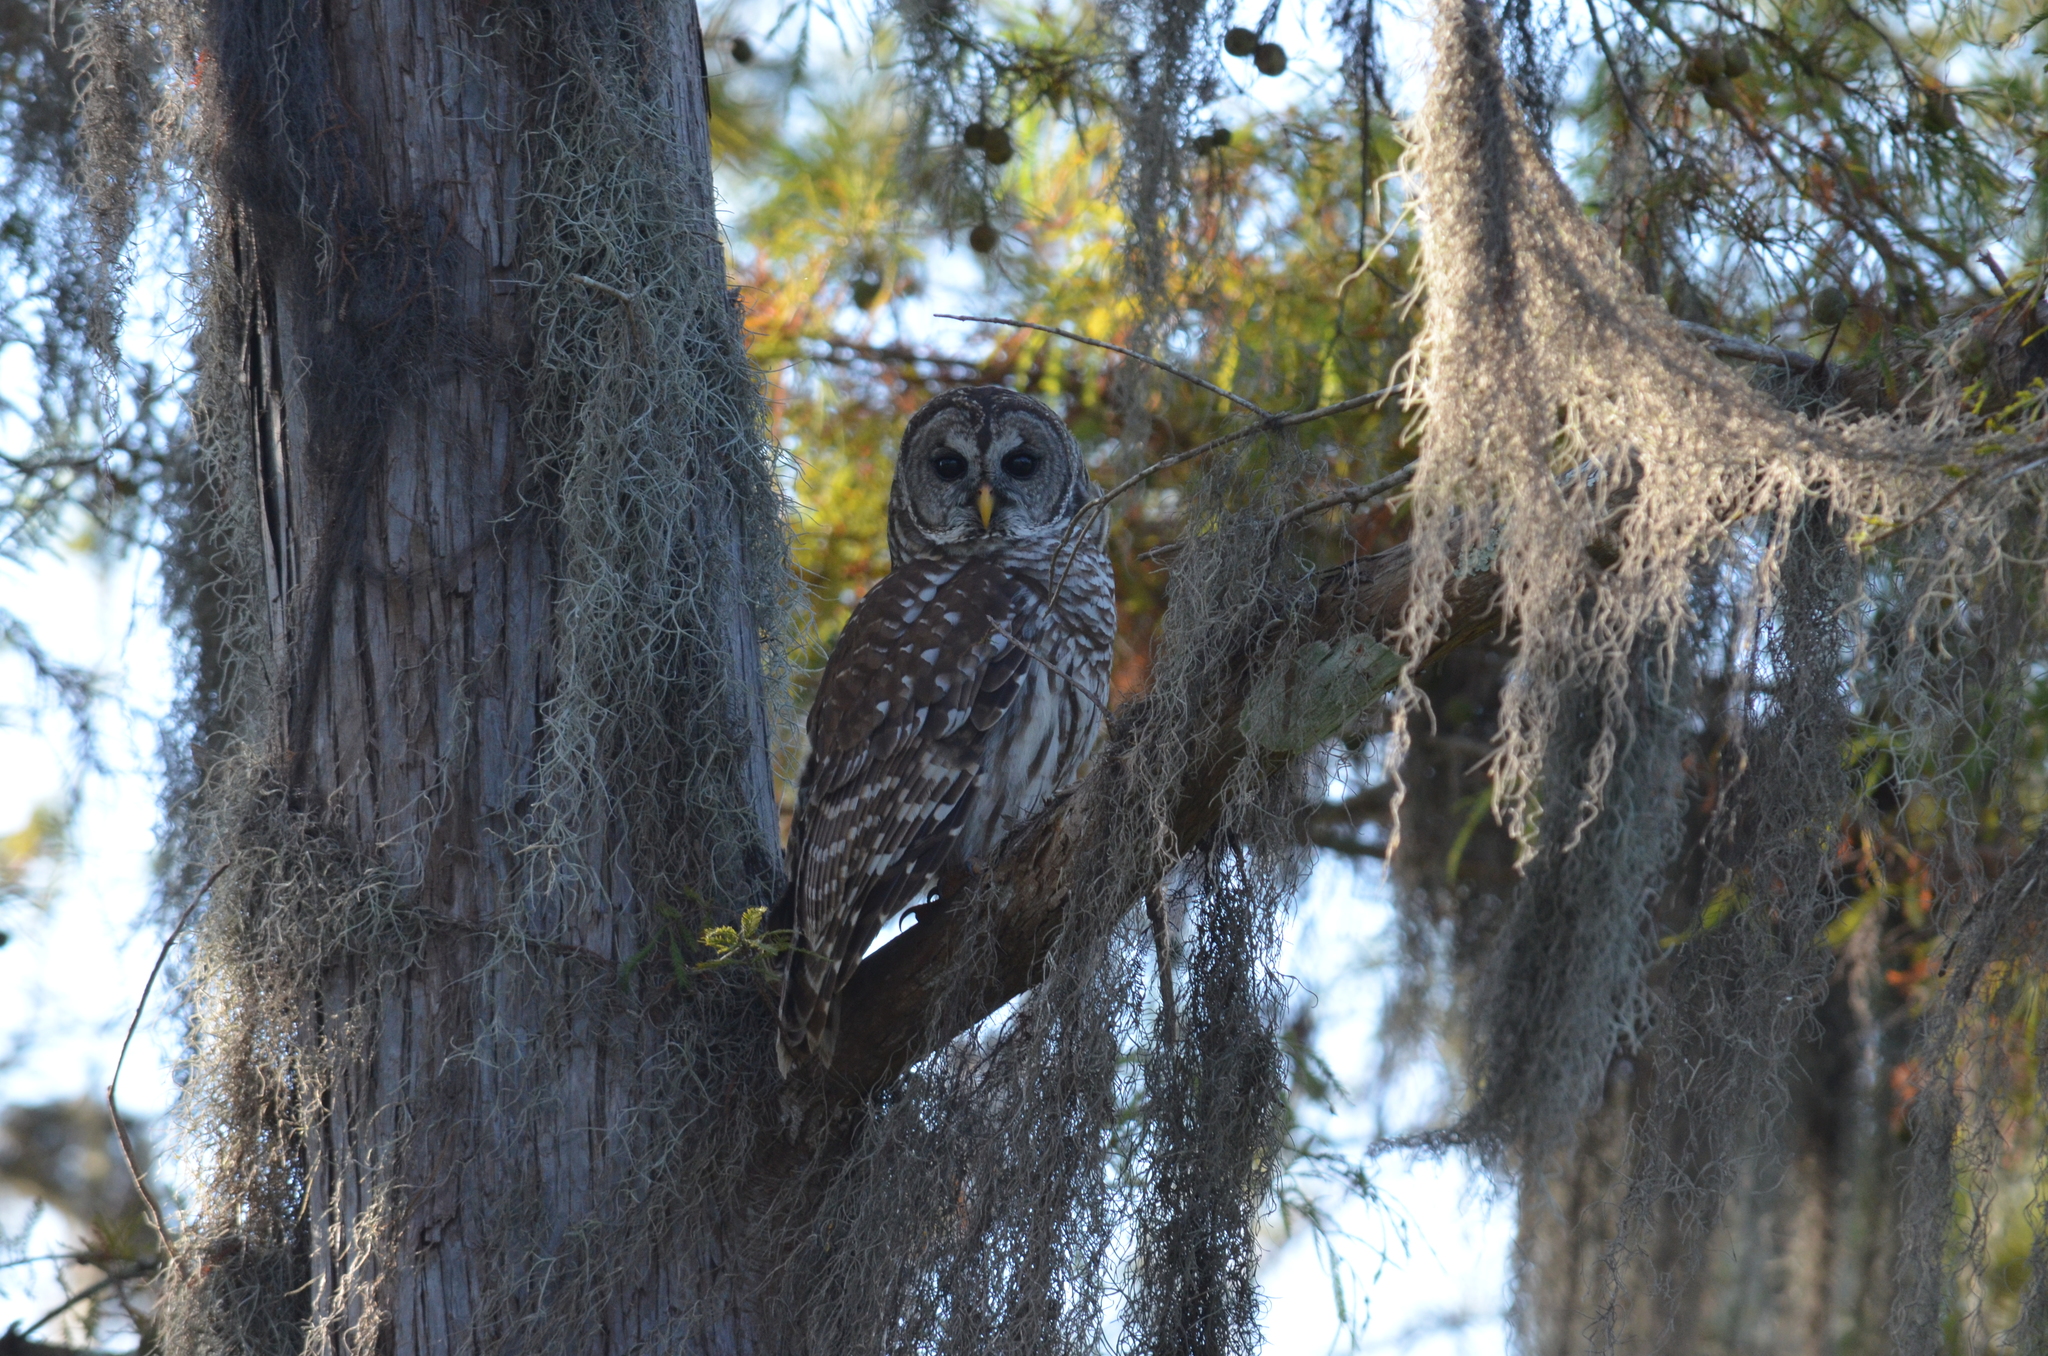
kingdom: Animalia
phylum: Chordata
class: Aves
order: Strigiformes
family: Strigidae
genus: Strix
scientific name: Strix varia
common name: Barred owl
